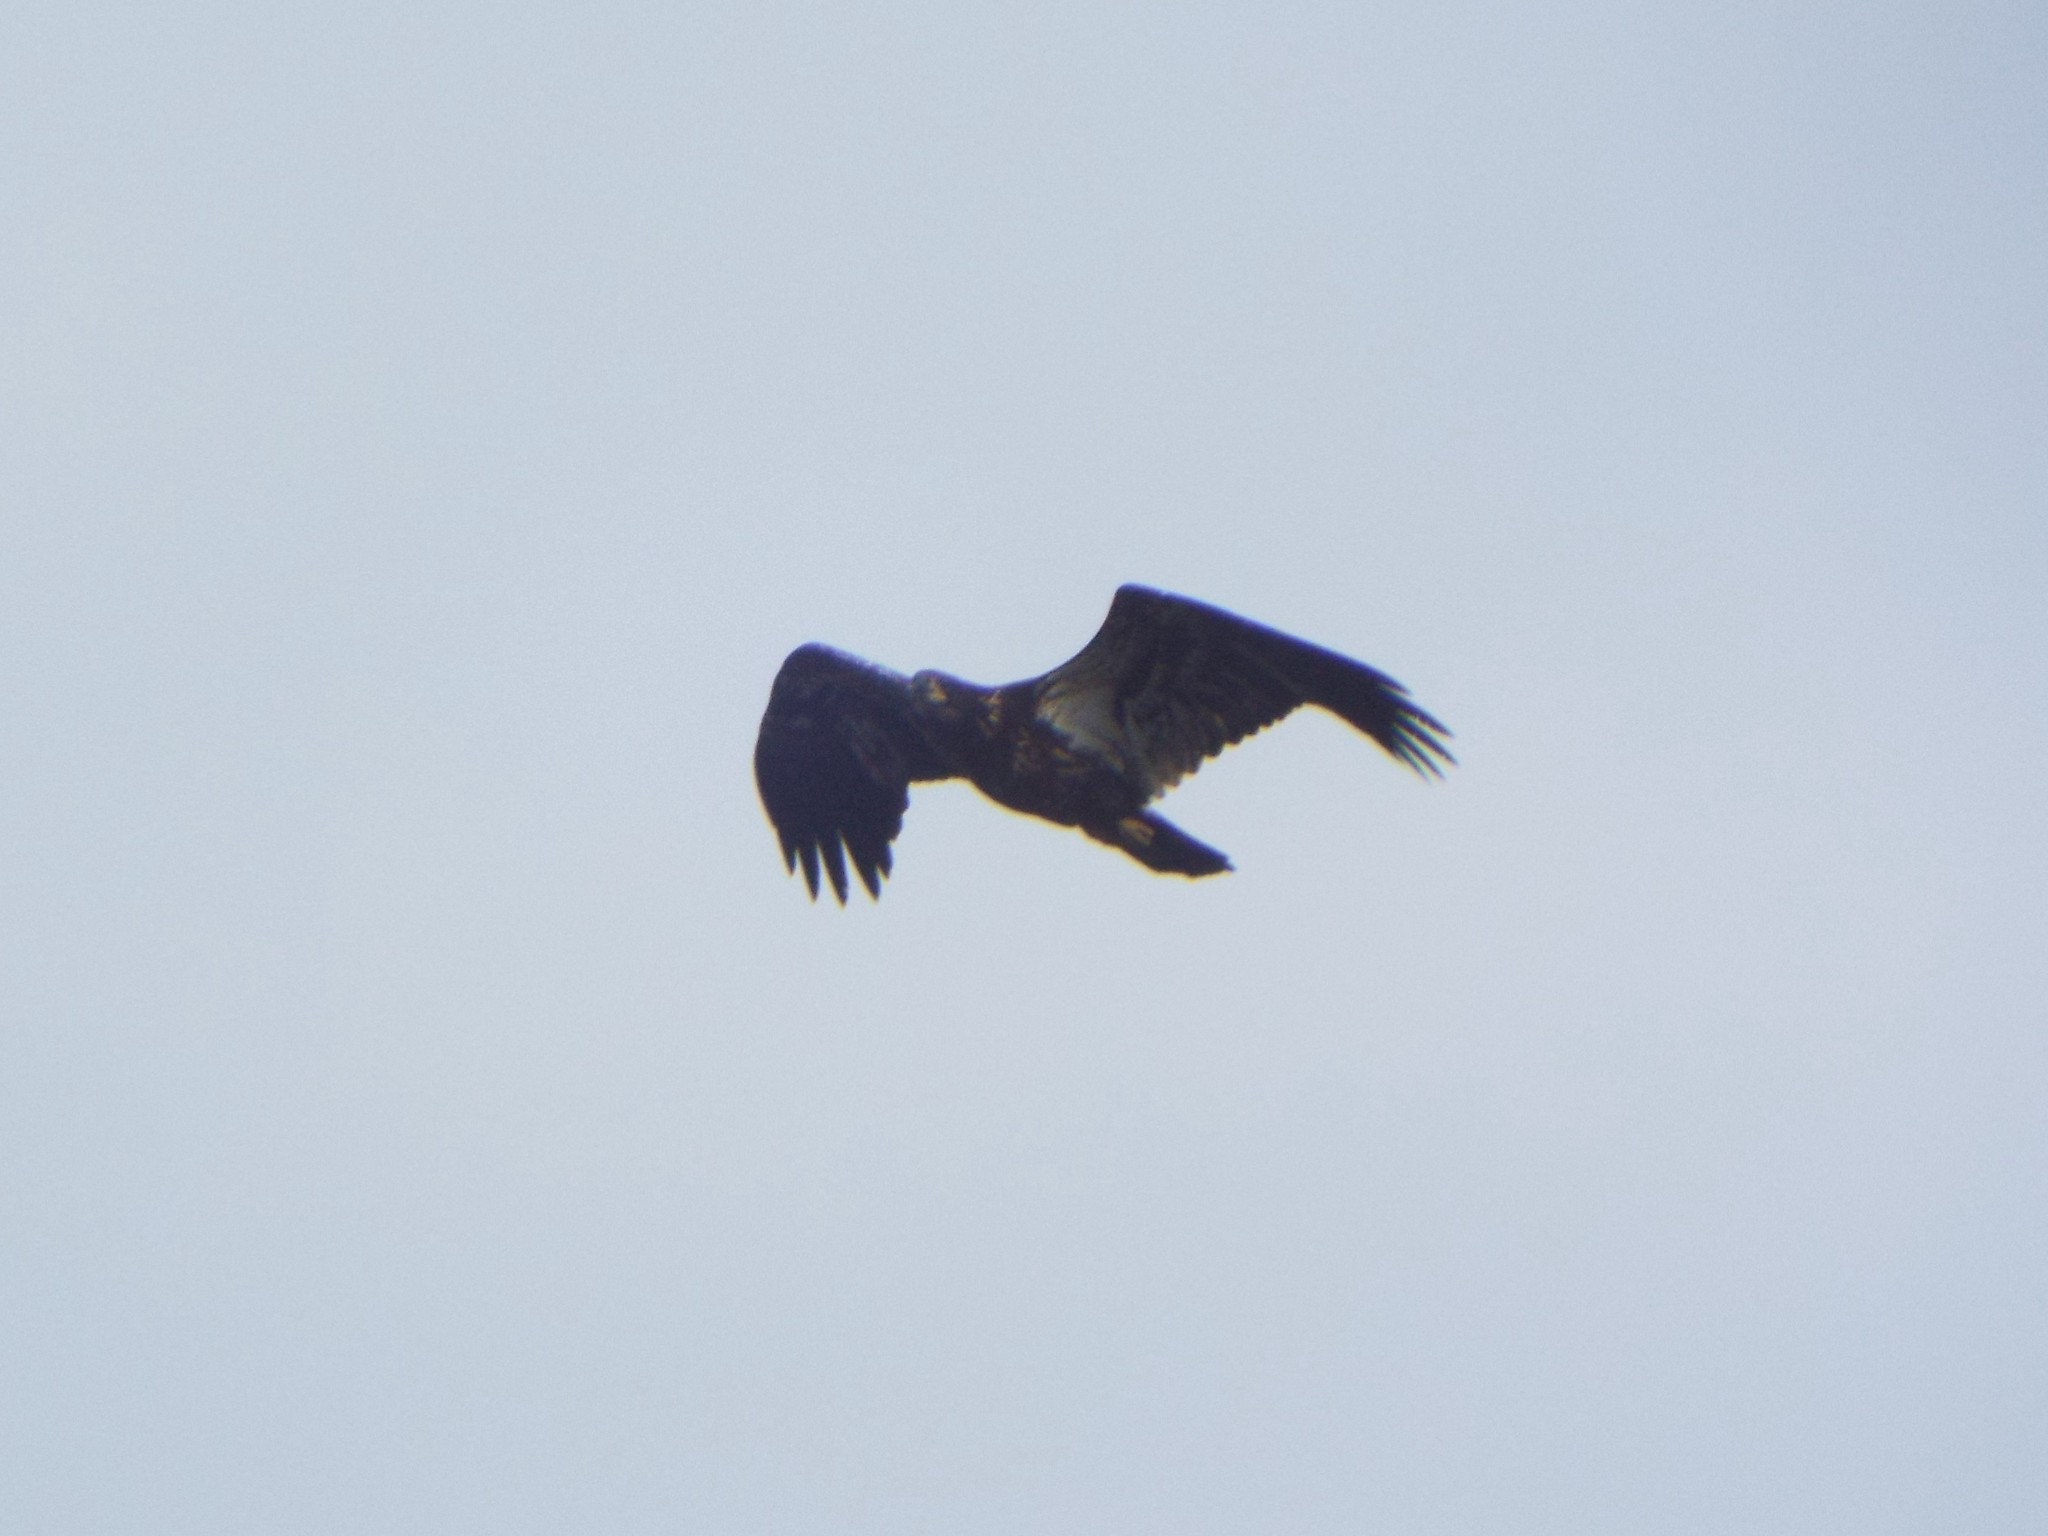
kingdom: Animalia
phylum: Chordata
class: Aves
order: Accipitriformes
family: Accipitridae
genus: Haliaeetus
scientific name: Haliaeetus leucocephalus
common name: Bald eagle
